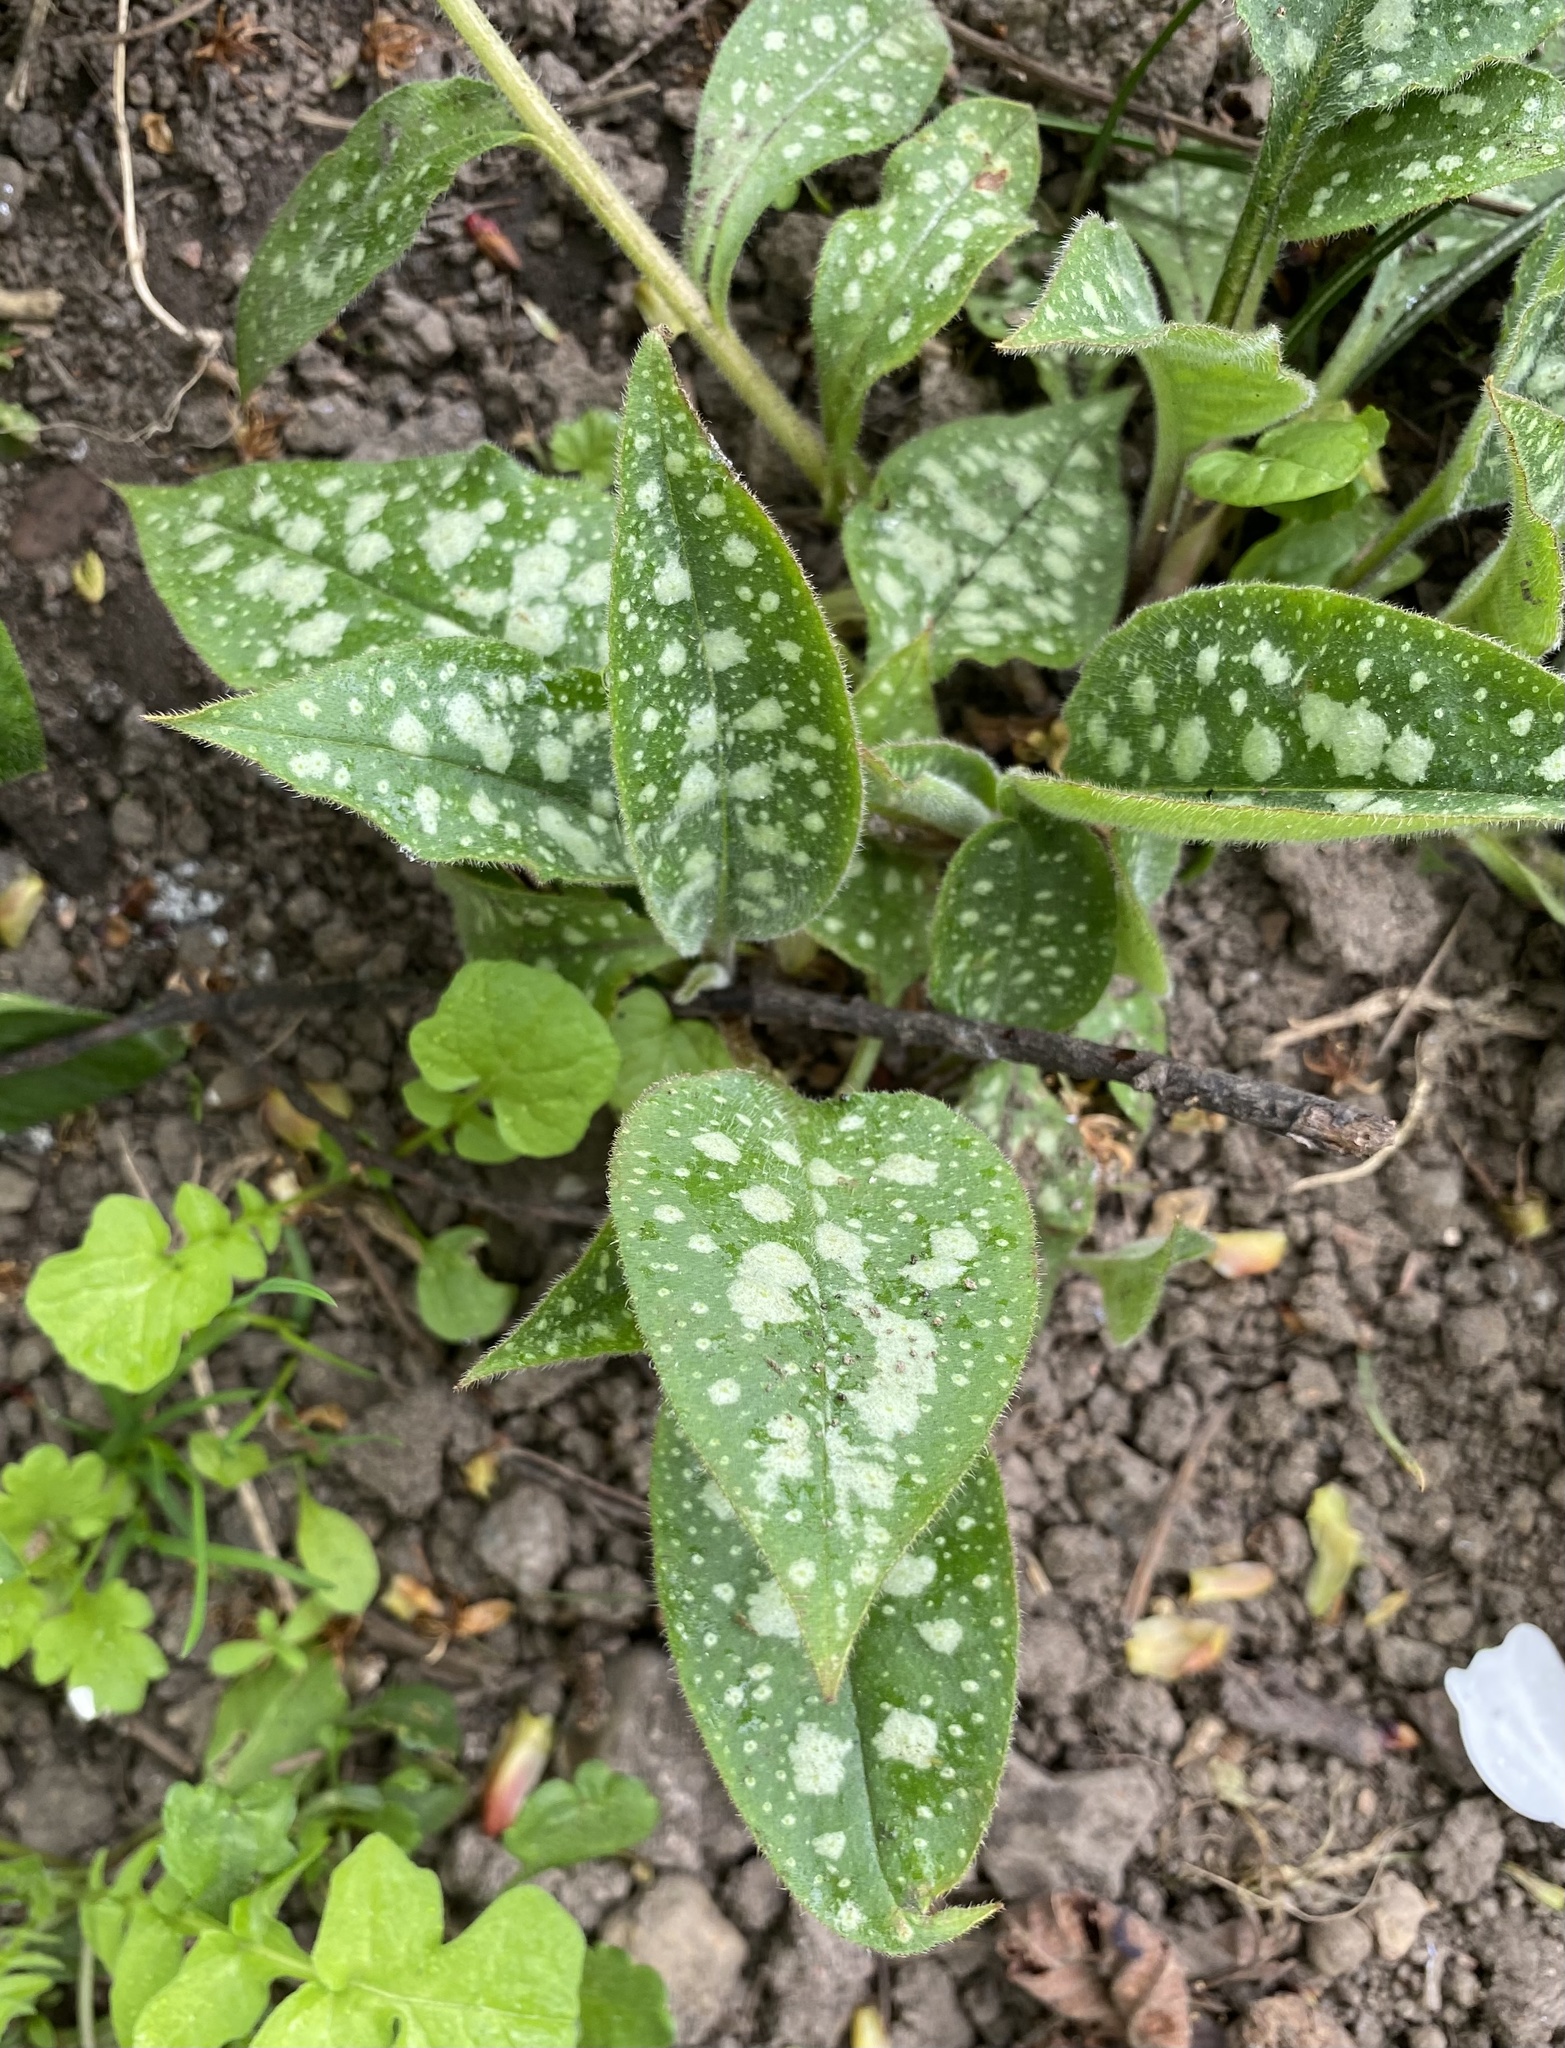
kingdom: Plantae
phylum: Tracheophyta
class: Magnoliopsida
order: Boraginales
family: Boraginaceae
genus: Pulmonaria
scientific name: Pulmonaria officinalis
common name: Lungwort
